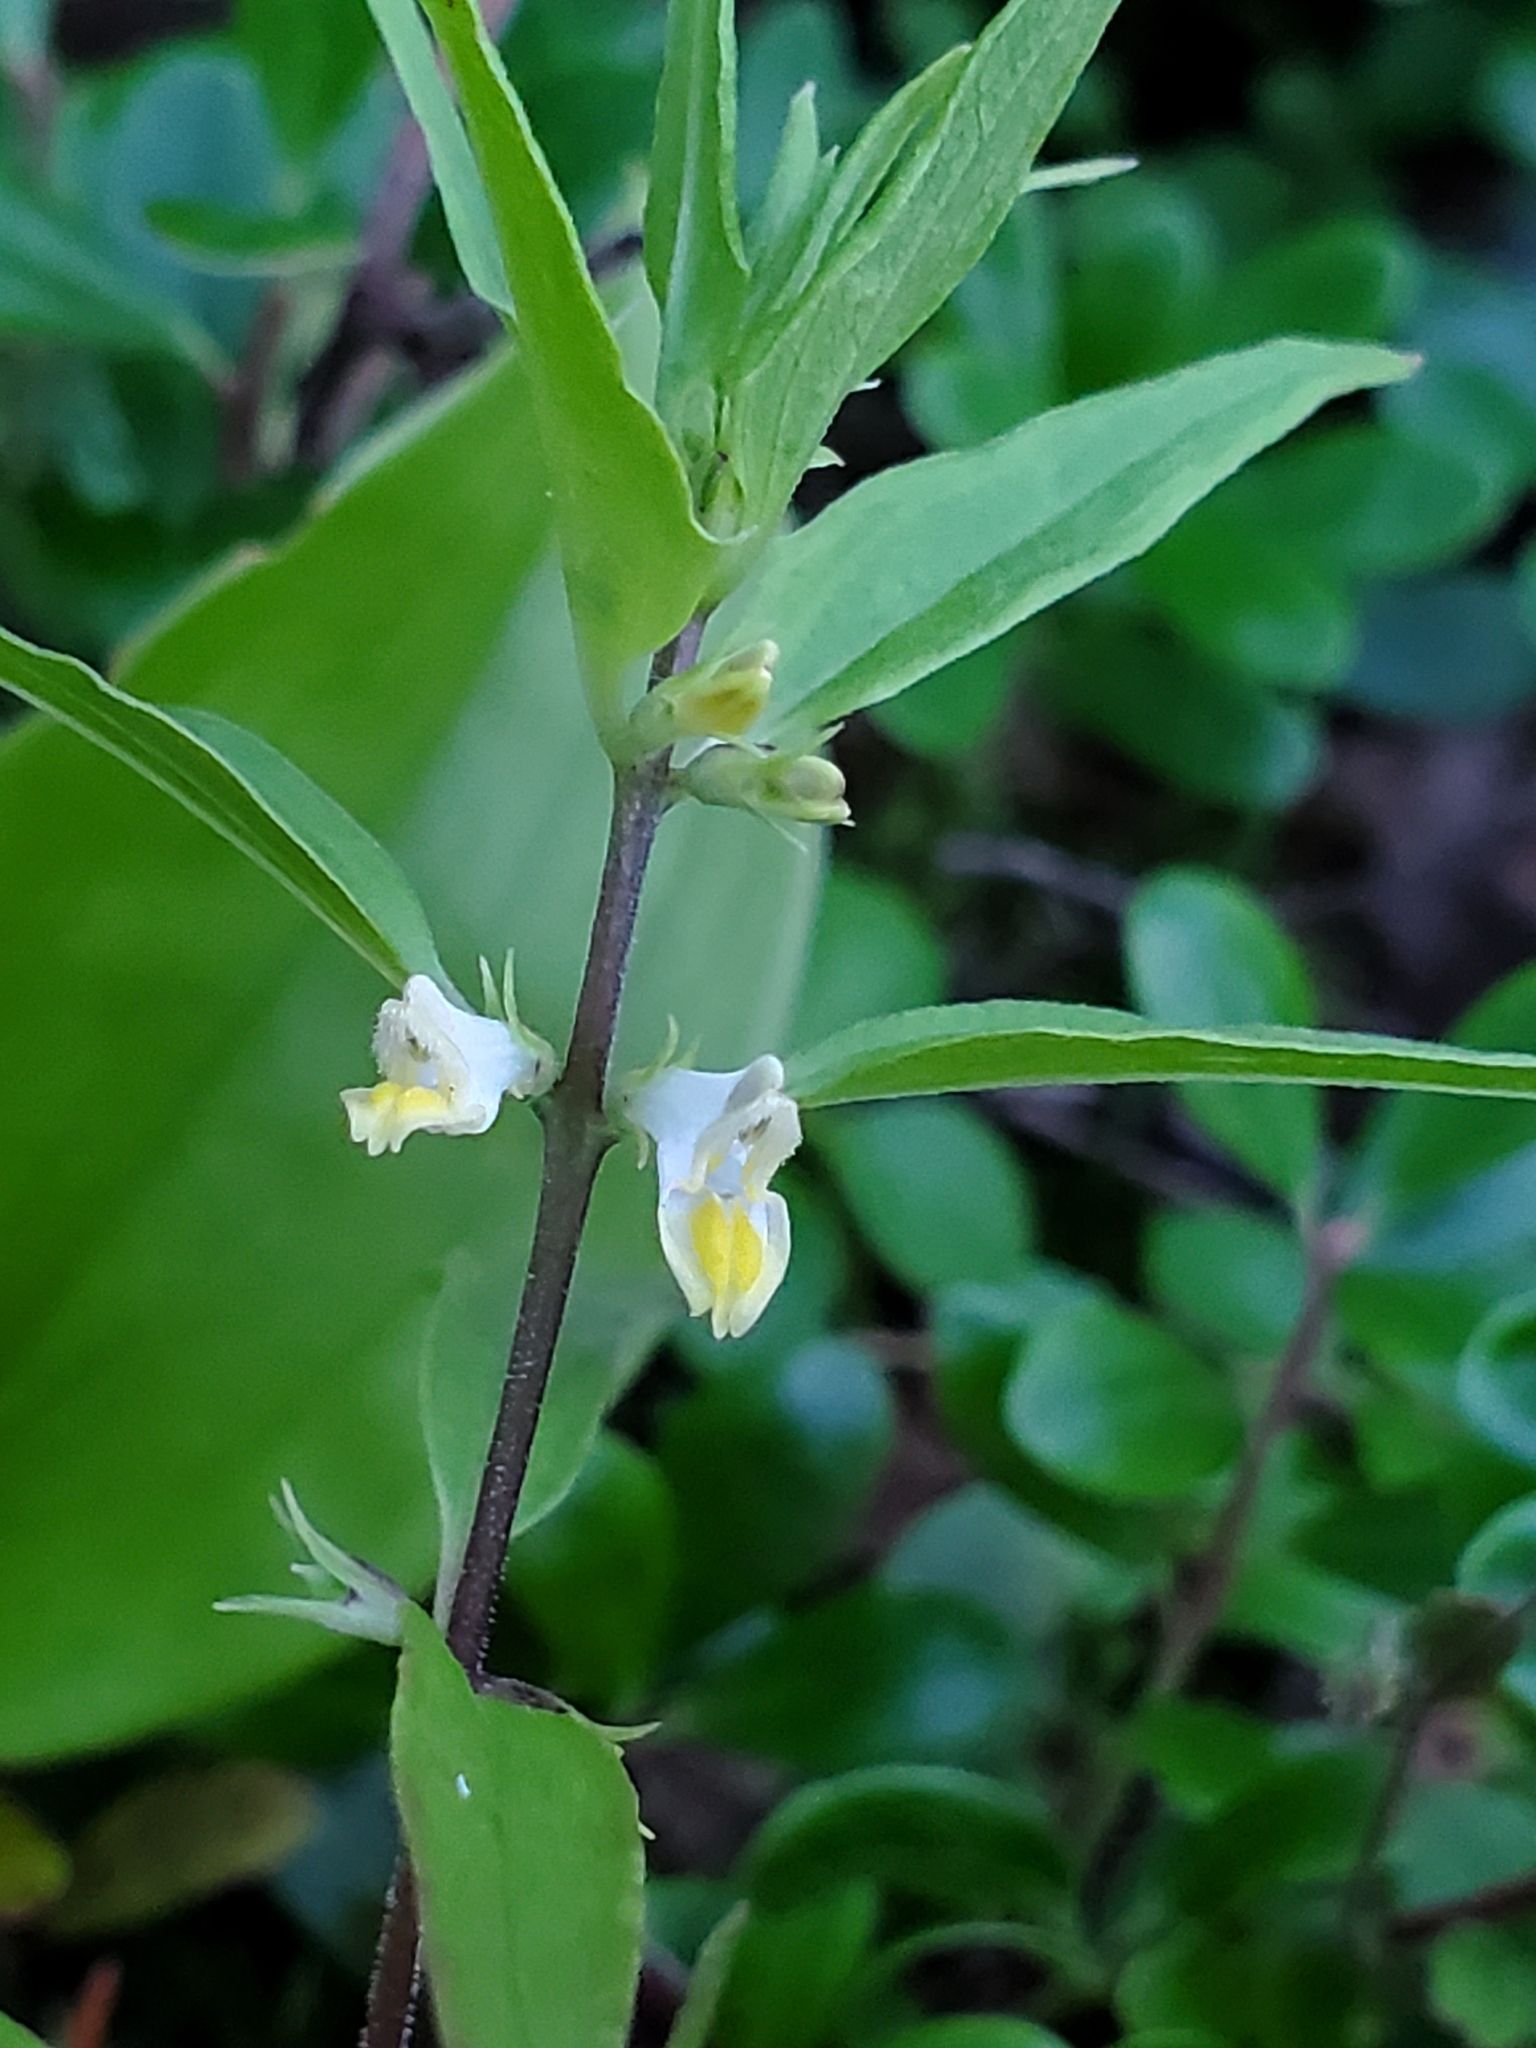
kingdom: Plantae
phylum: Tracheophyta
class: Magnoliopsida
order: Lamiales
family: Orobanchaceae
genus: Melampyrum
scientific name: Melampyrum lineare
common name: American cow-wheat
